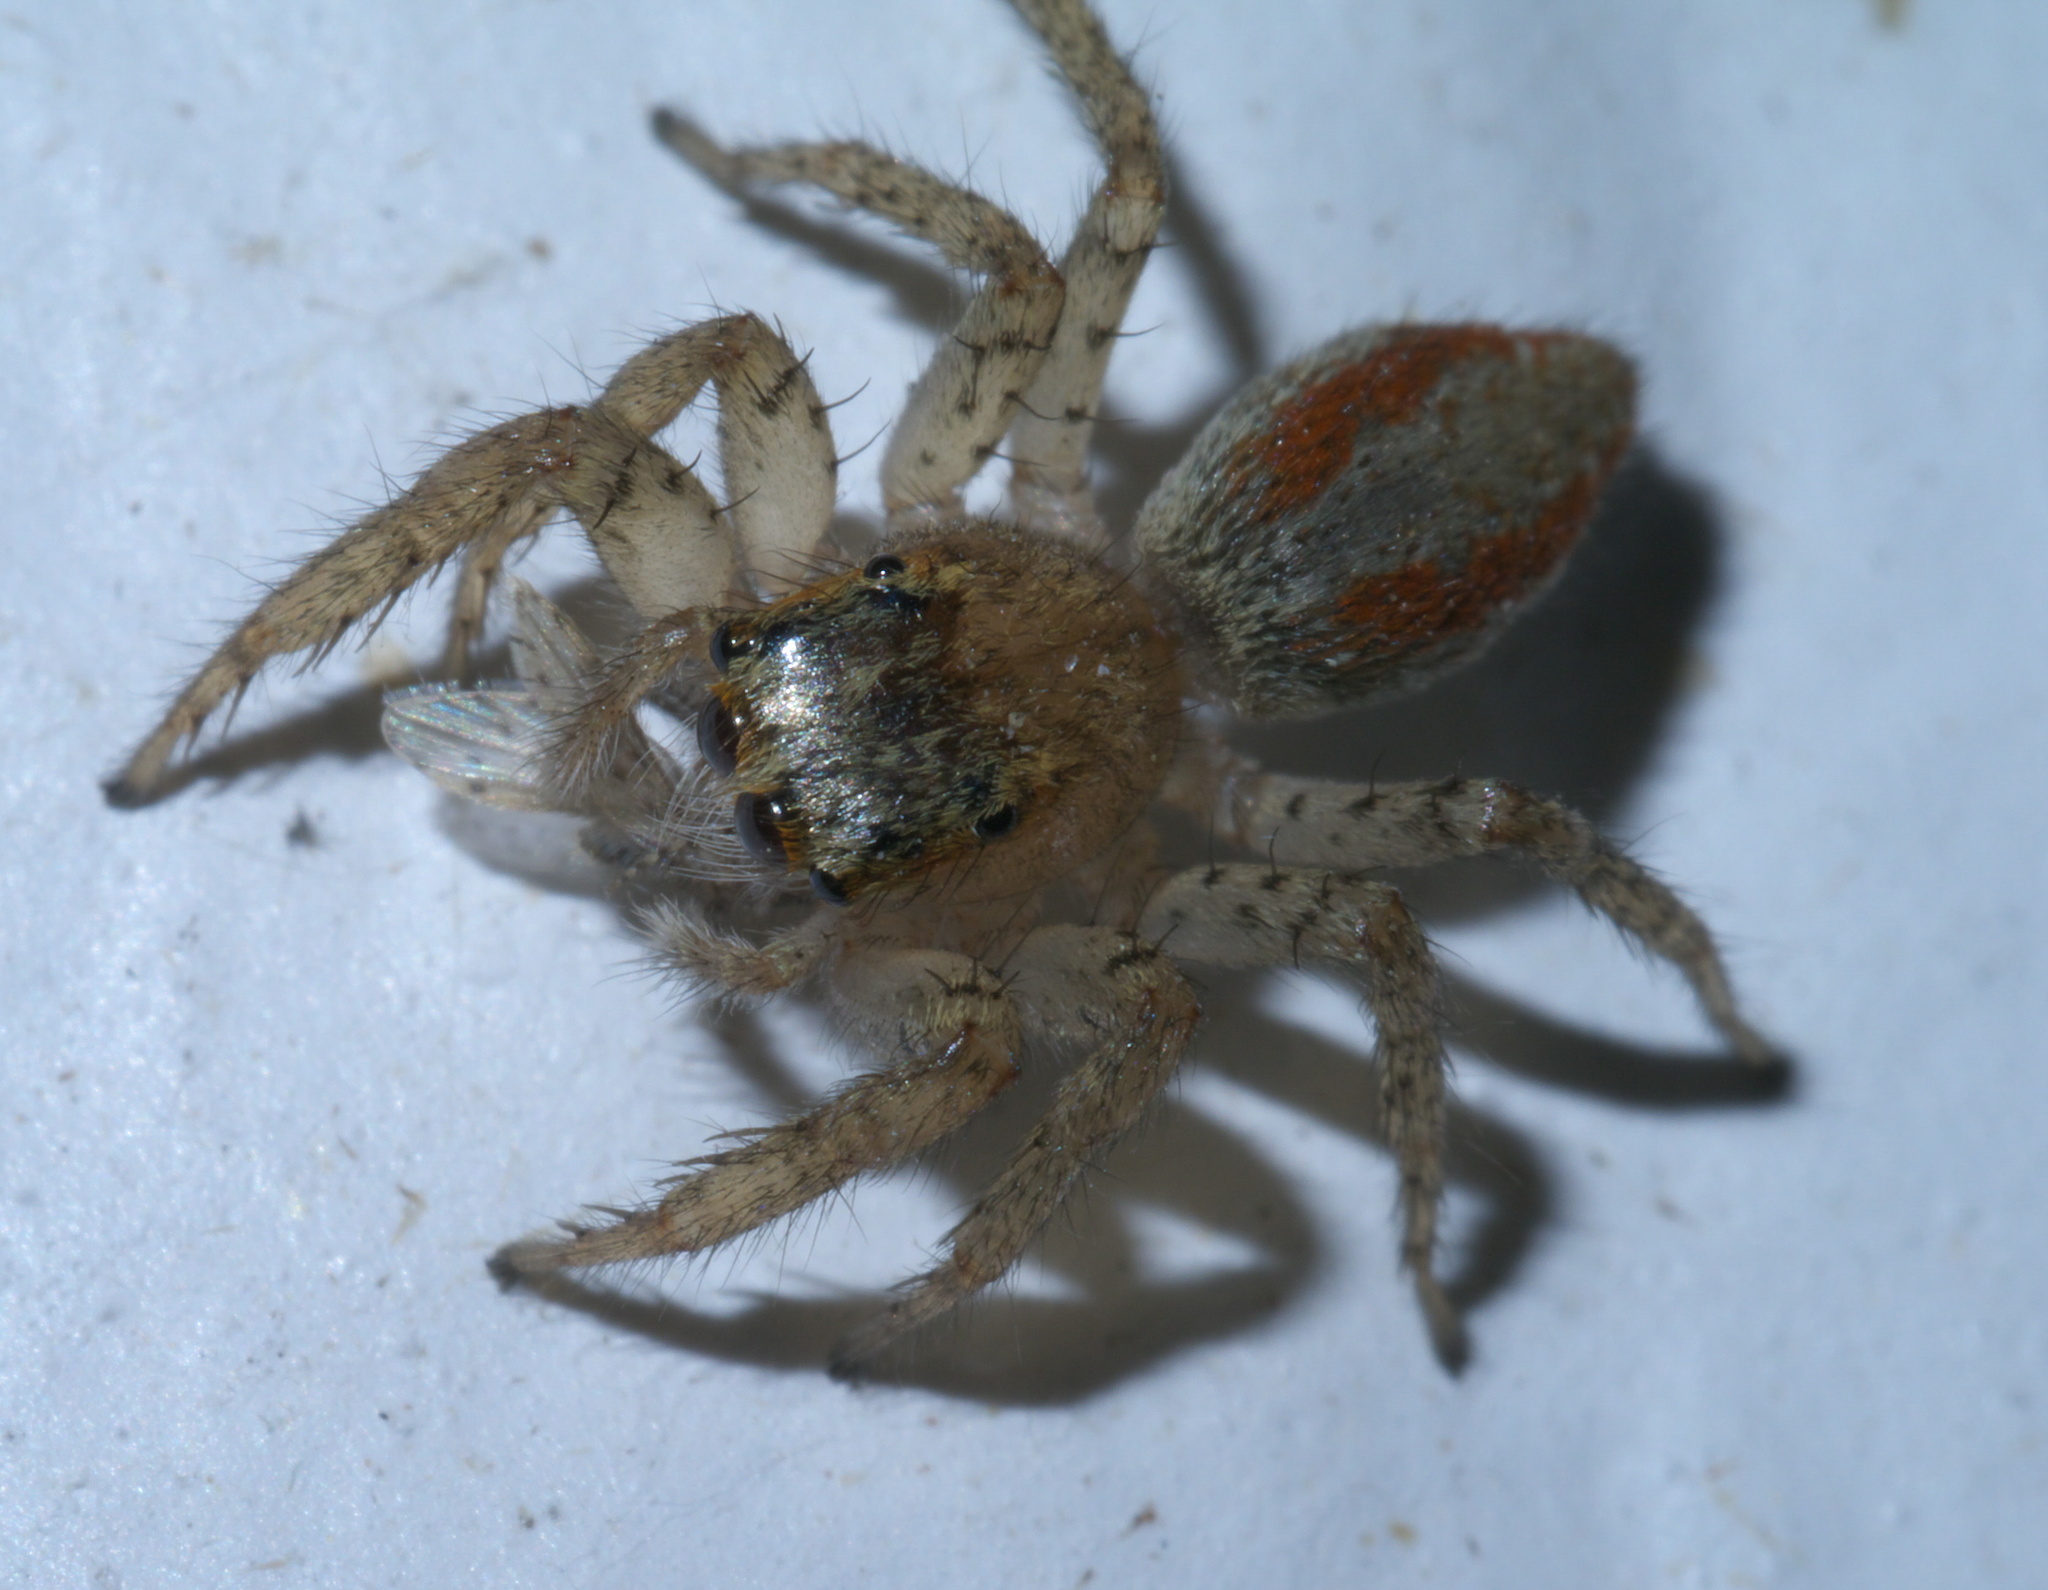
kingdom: Animalia
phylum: Arthropoda
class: Arachnida
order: Araneae
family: Salticidae
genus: Maevia
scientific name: Maevia inclemens
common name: Dimorphic jumper
